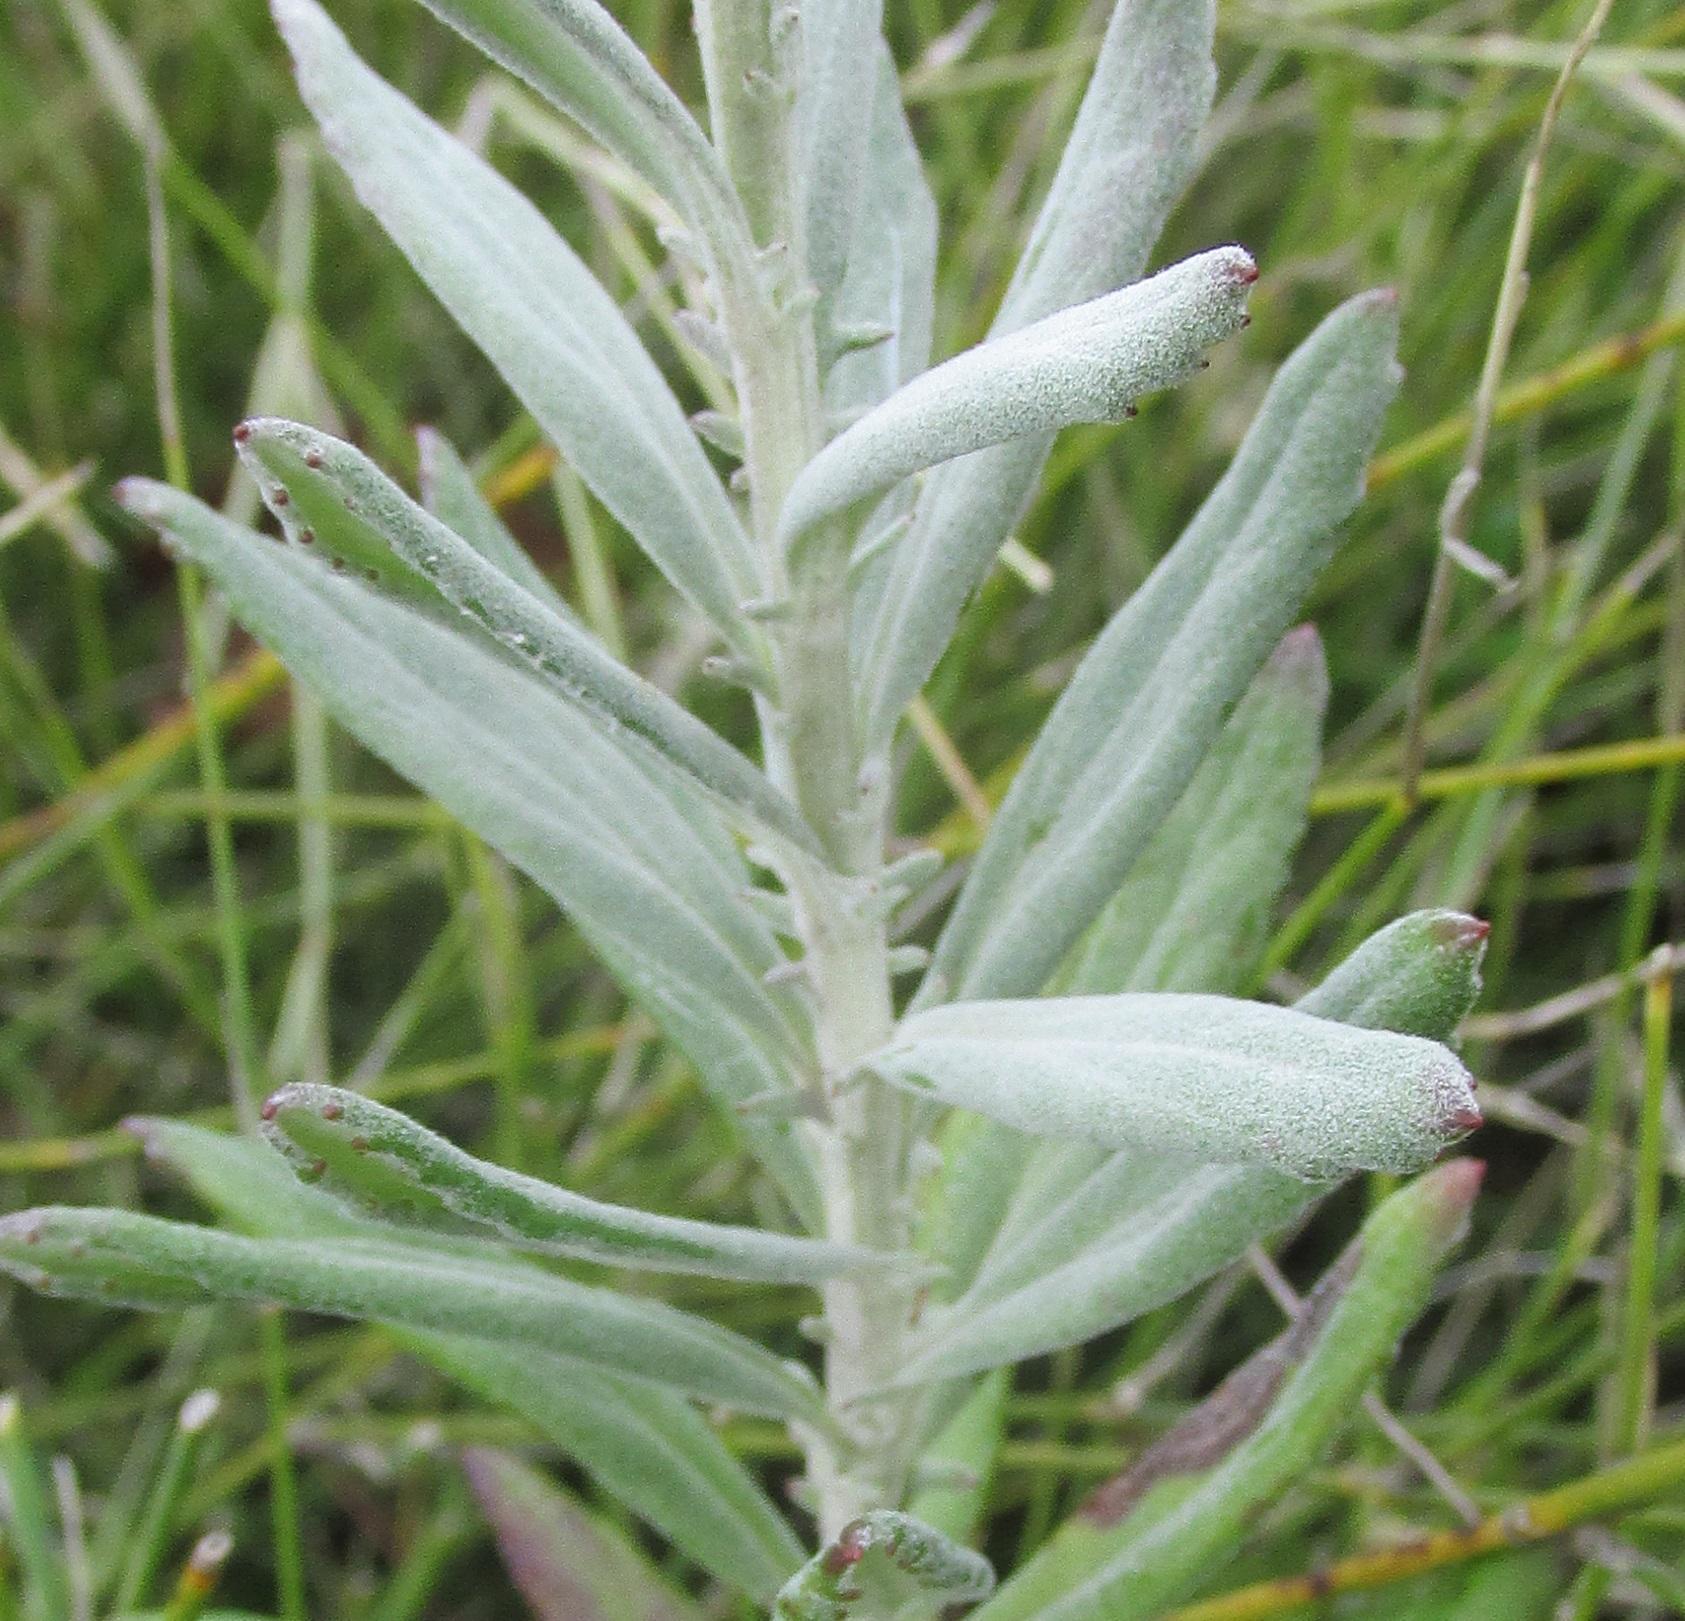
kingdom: Plantae
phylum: Tracheophyta
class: Magnoliopsida
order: Asterales
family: Asteraceae
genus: Senecio
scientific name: Senecio lineatus
